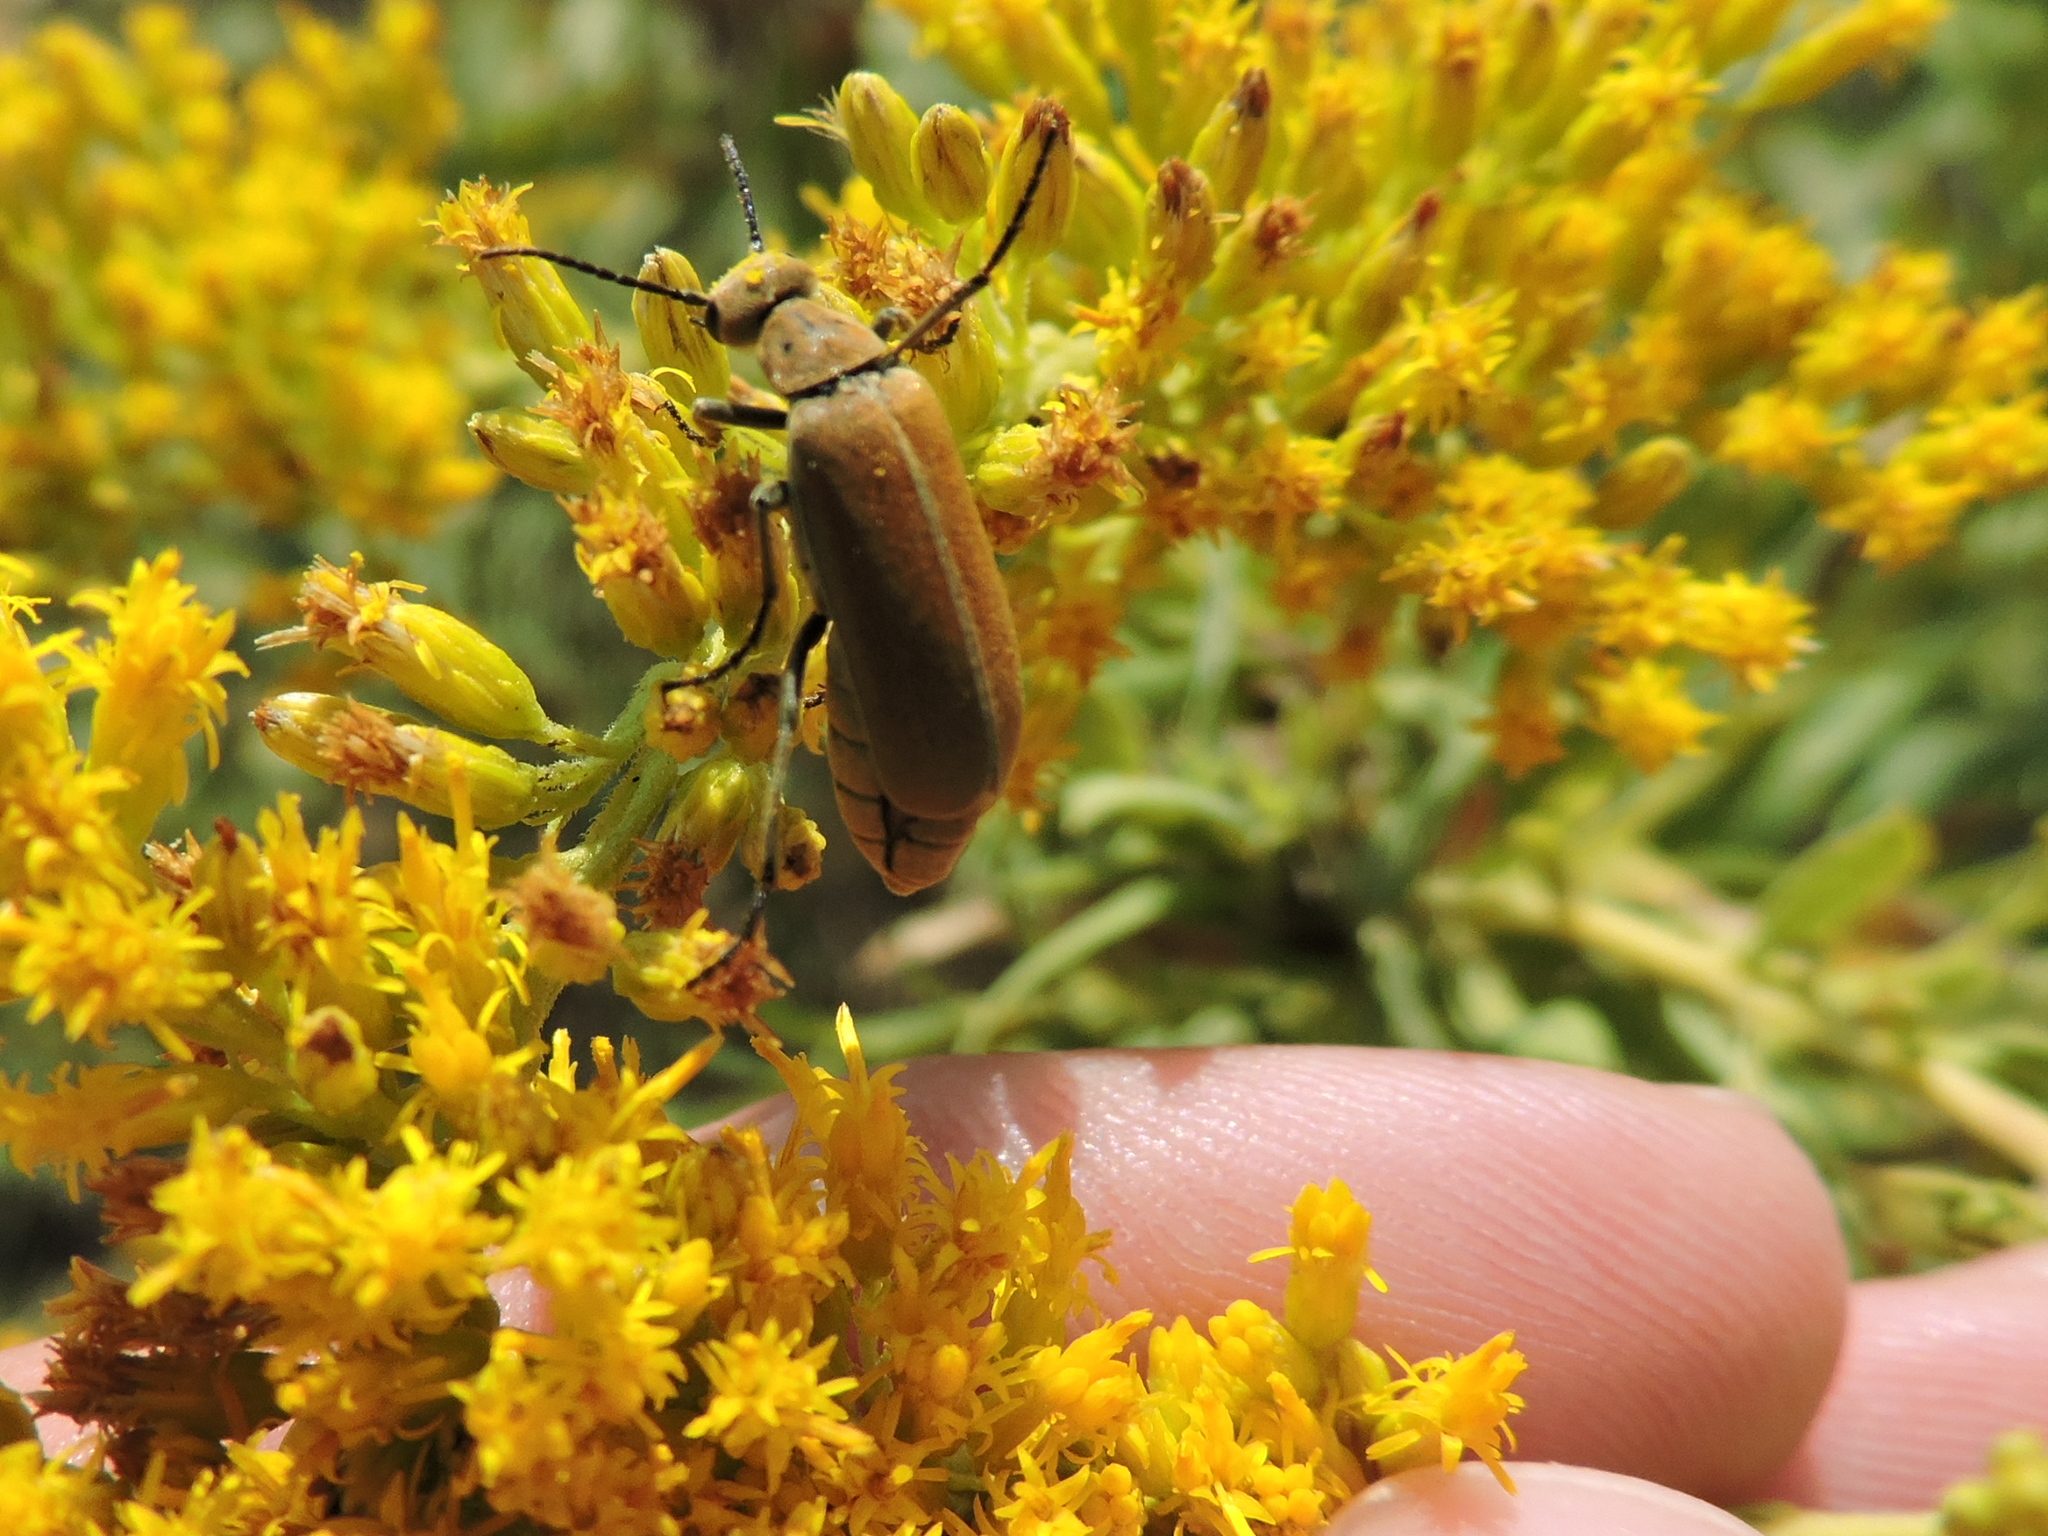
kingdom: Animalia
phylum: Arthropoda
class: Insecta
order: Coleoptera
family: Meloidae
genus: Epicauta
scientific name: Epicauta callosa
